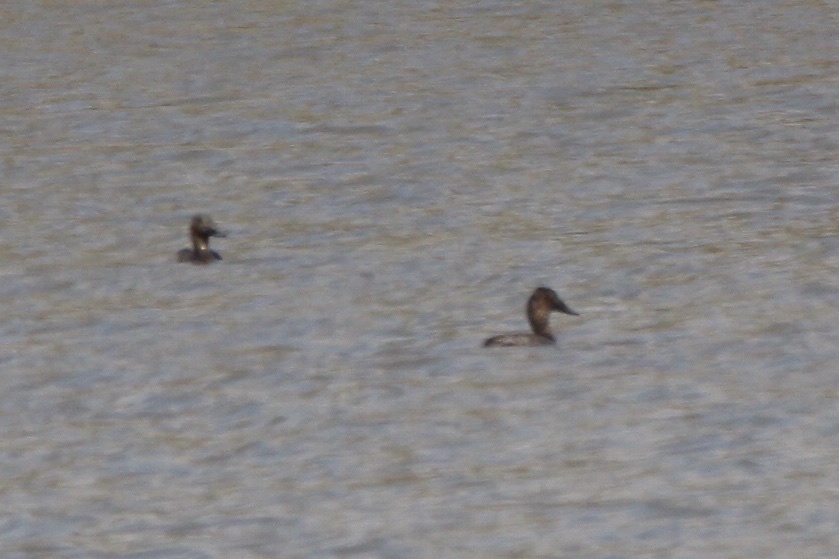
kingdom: Animalia
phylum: Chordata
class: Aves
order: Anseriformes
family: Anatidae
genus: Aythya
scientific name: Aythya valisineria
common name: Canvasback
